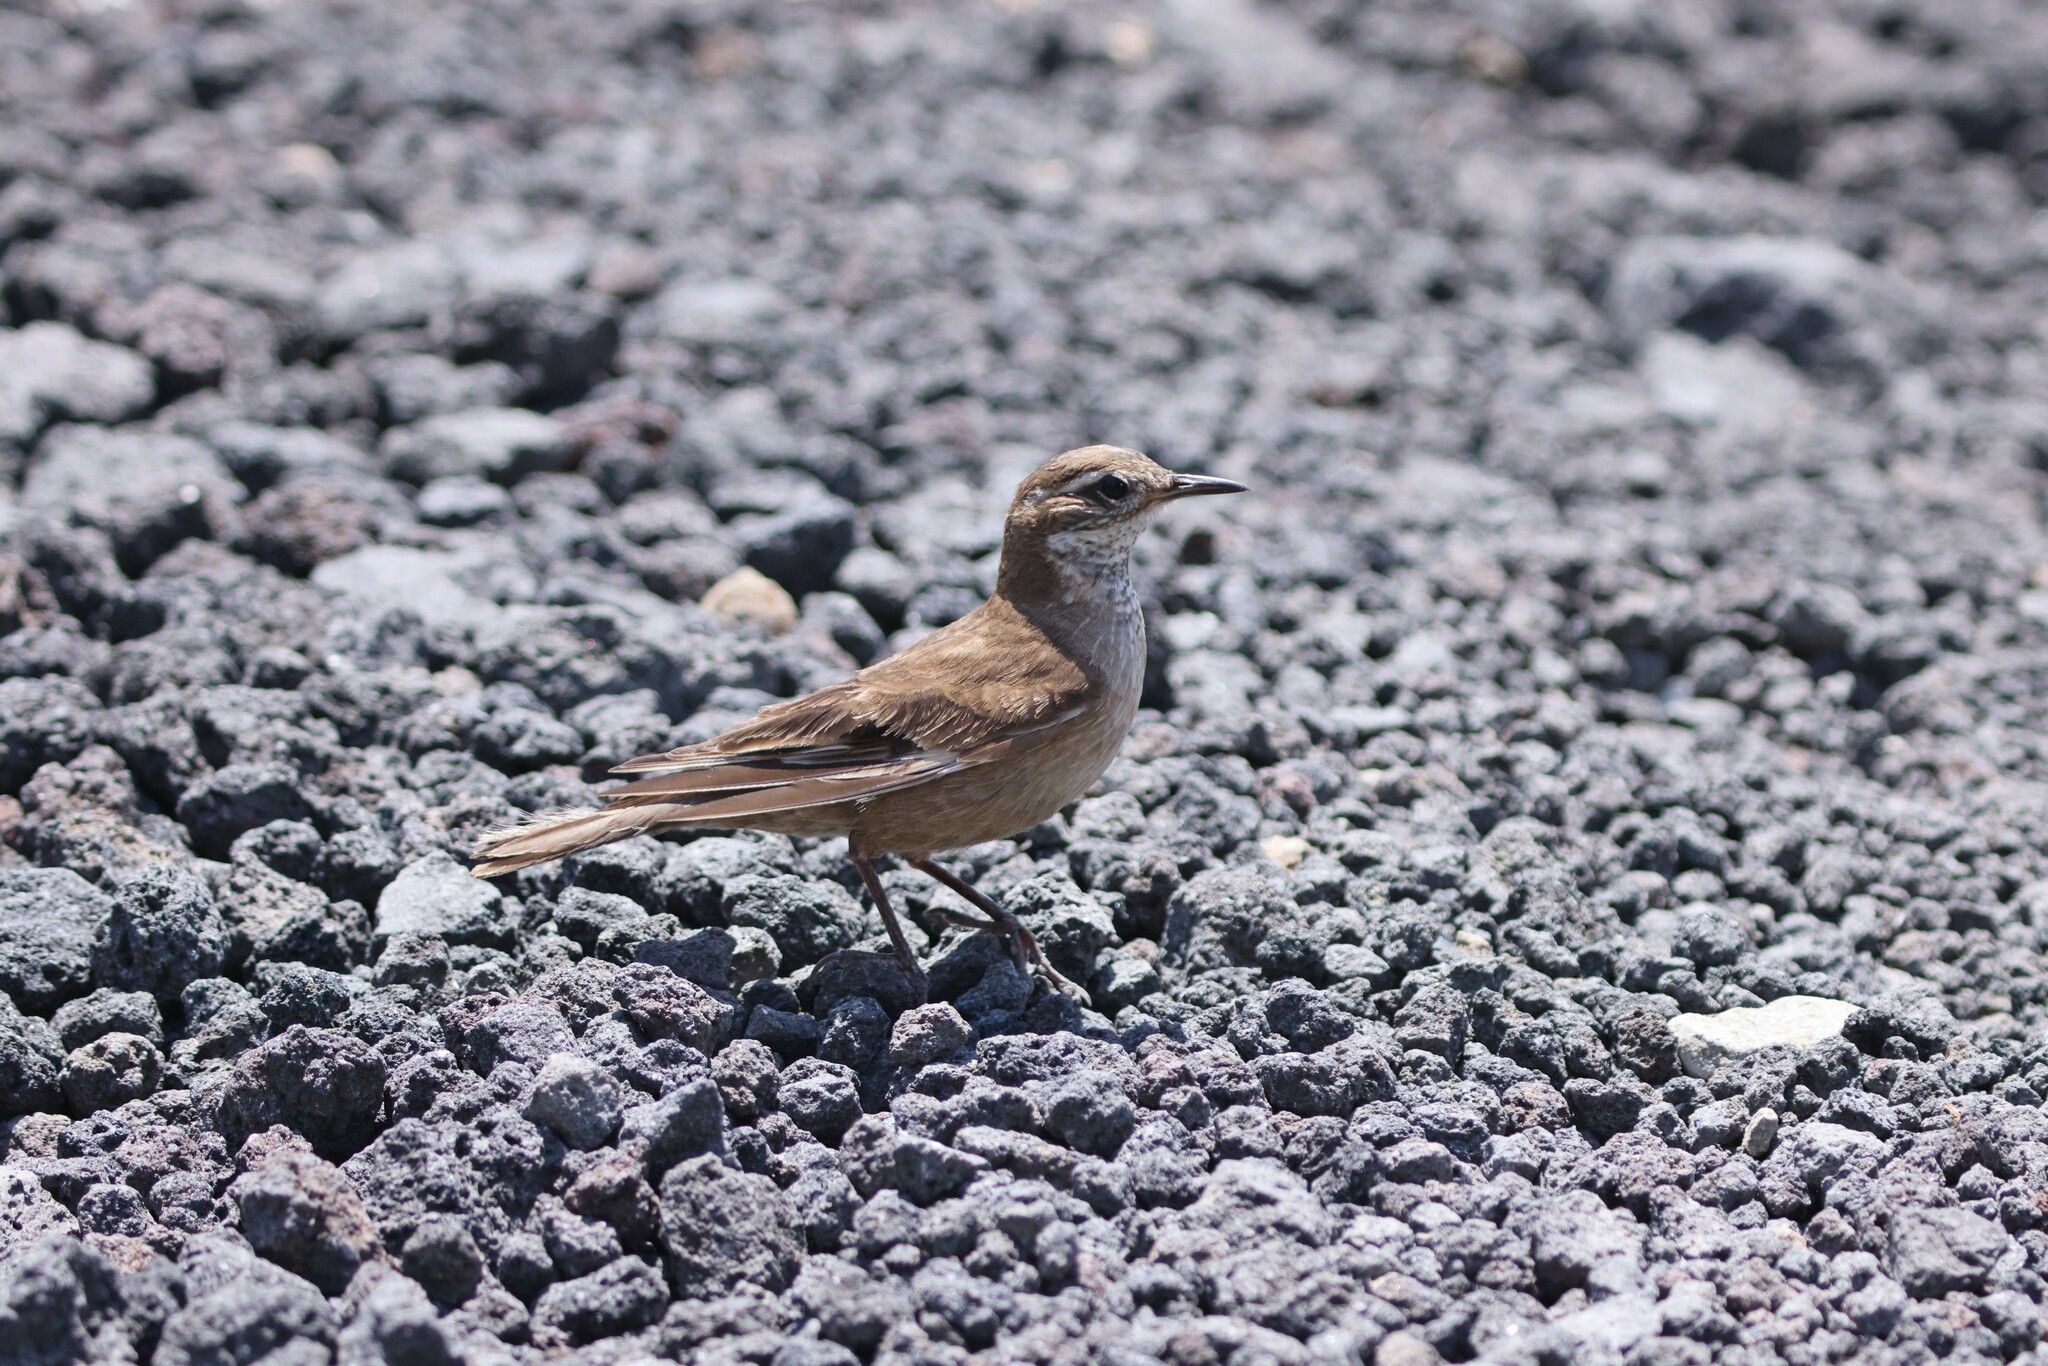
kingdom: Animalia
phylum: Chordata
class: Aves
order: Passeriformes
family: Furnariidae
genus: Cinclodes
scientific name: Cinclodes fuscus
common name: Buff-winged cinclodes
